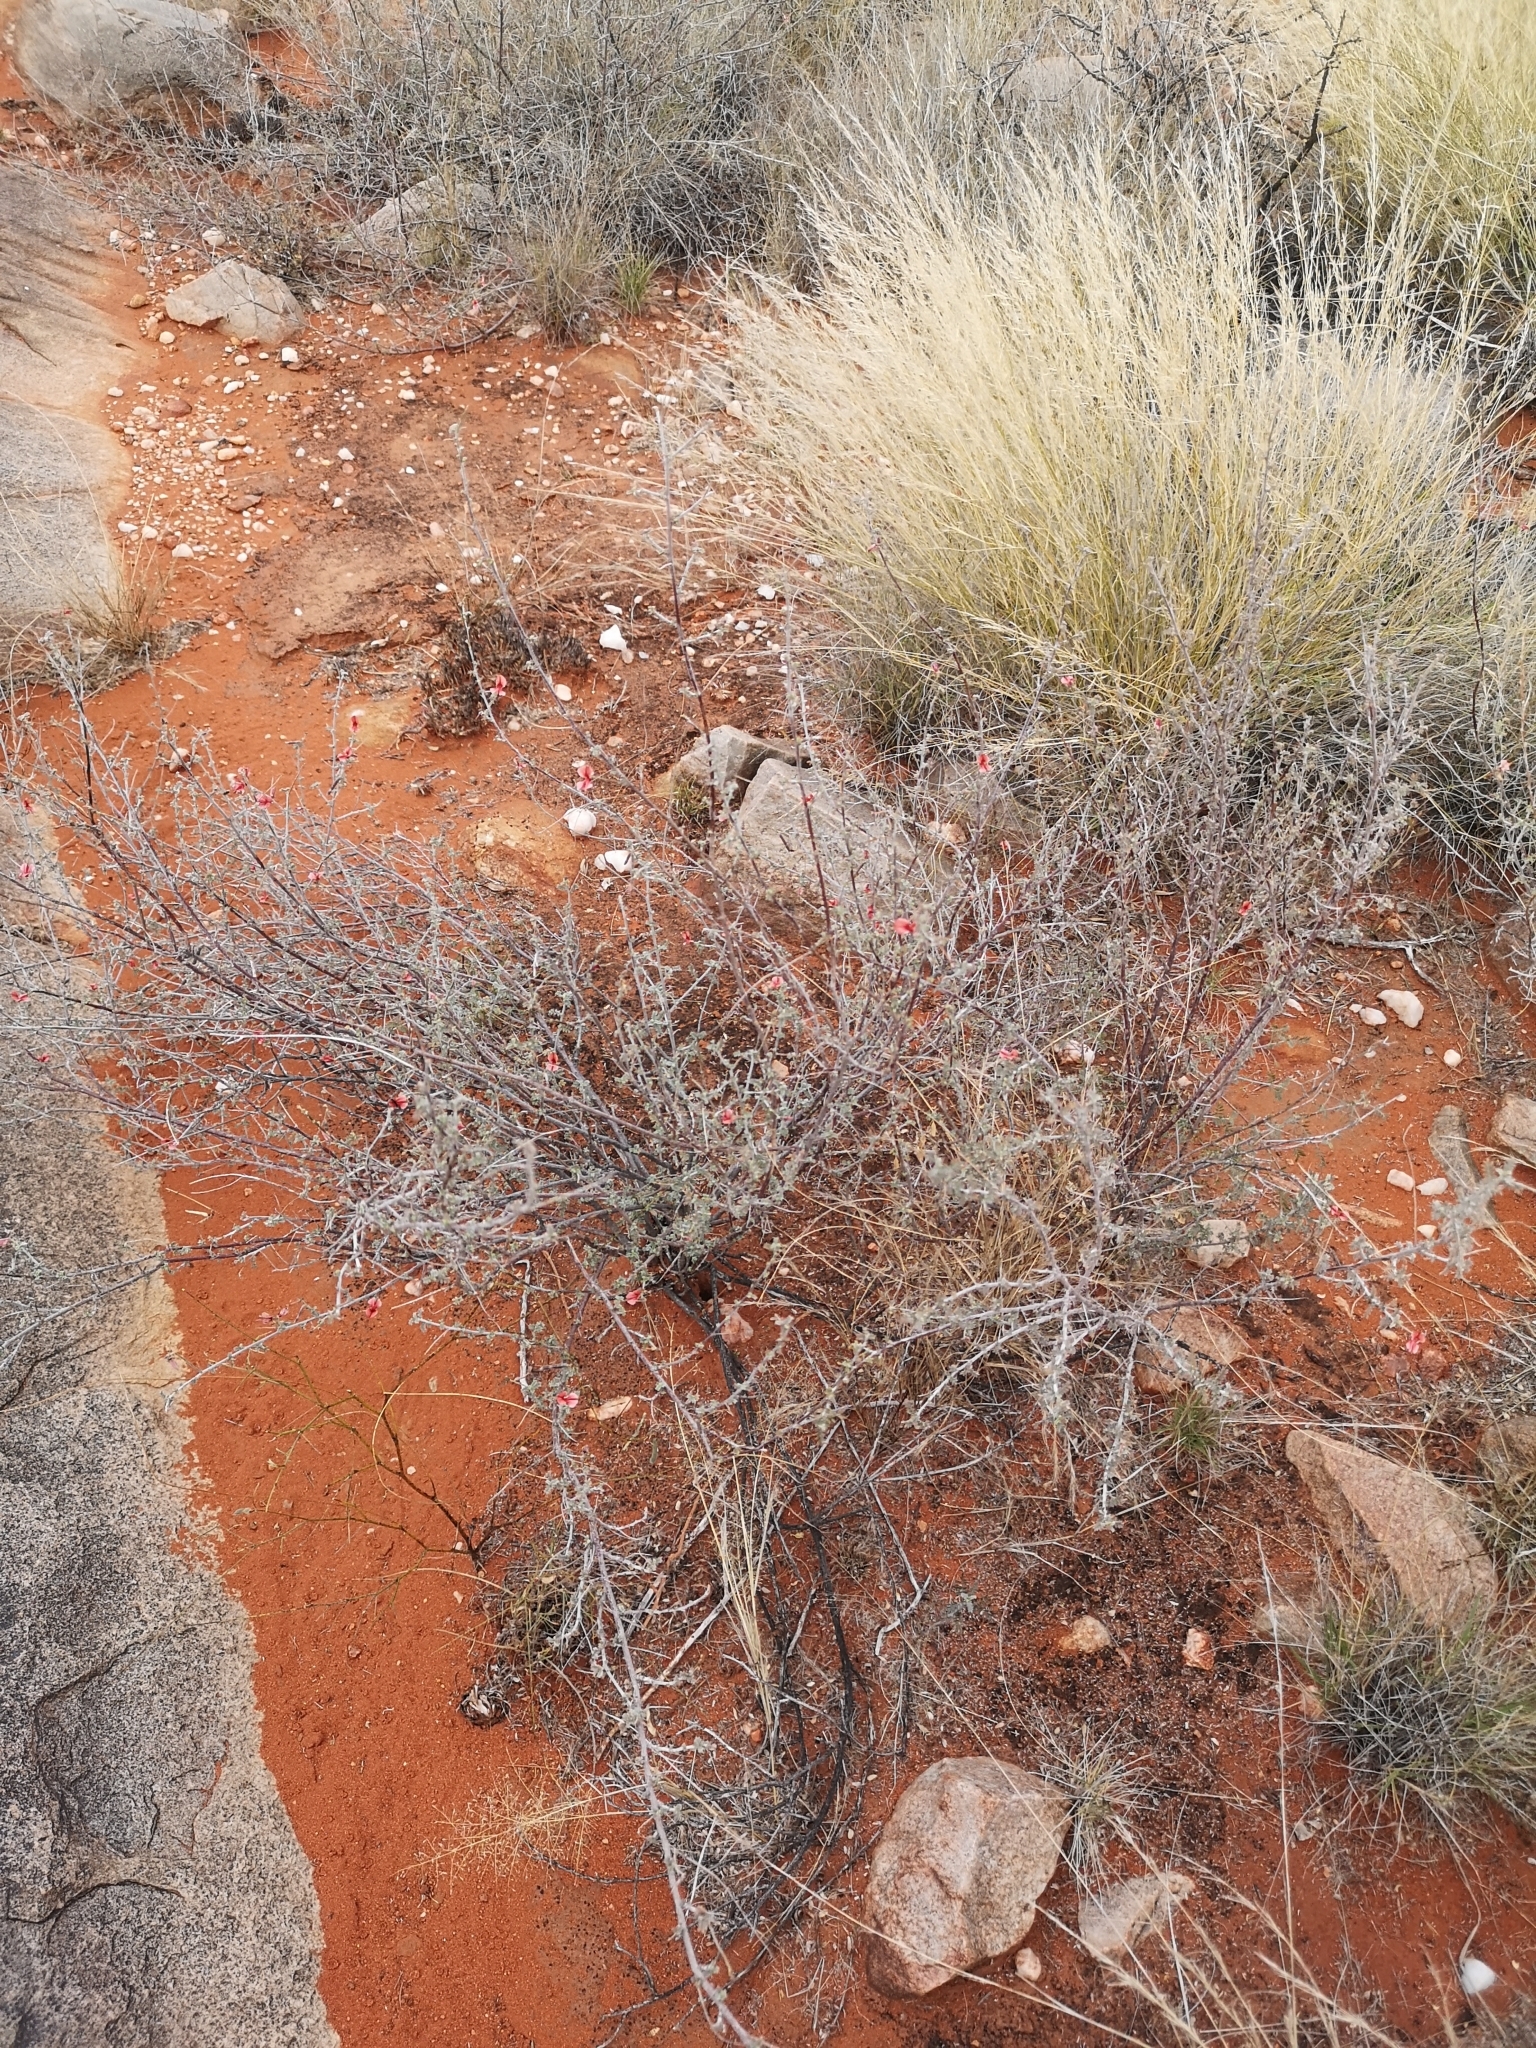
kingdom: Plantae
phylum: Tracheophyta
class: Magnoliopsida
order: Fabales
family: Fabaceae
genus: Indigofera
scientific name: Indigofera heterotricha
